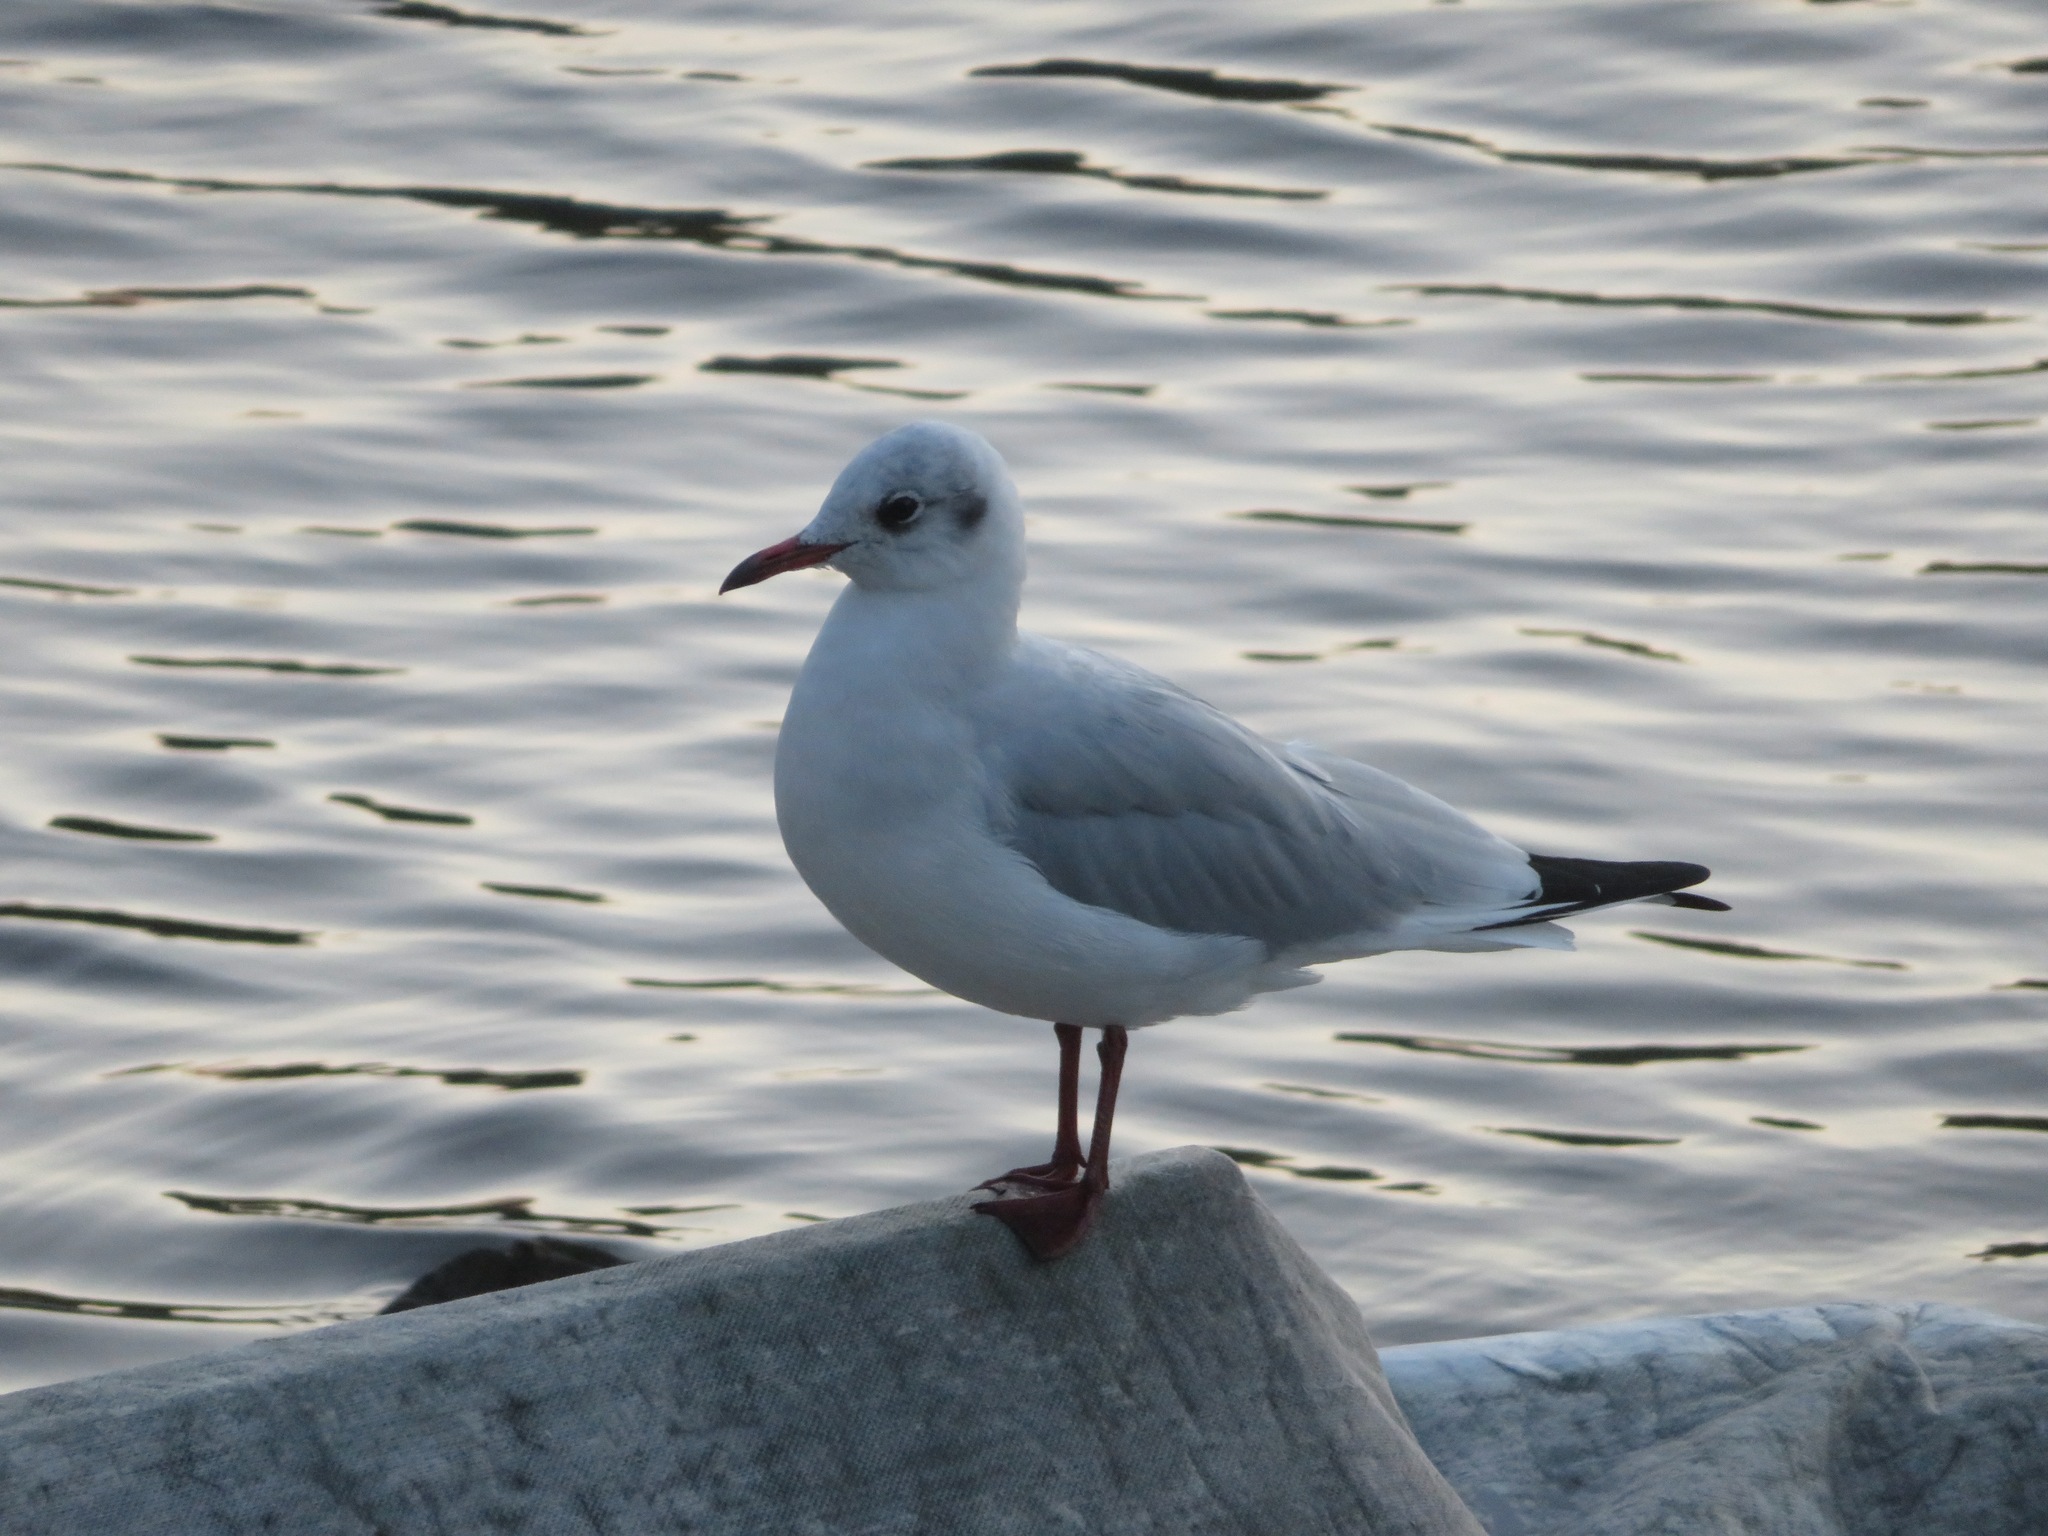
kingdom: Animalia
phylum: Chordata
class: Aves
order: Charadriiformes
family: Laridae
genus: Chroicocephalus
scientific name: Chroicocephalus ridibundus
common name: Black-headed gull
